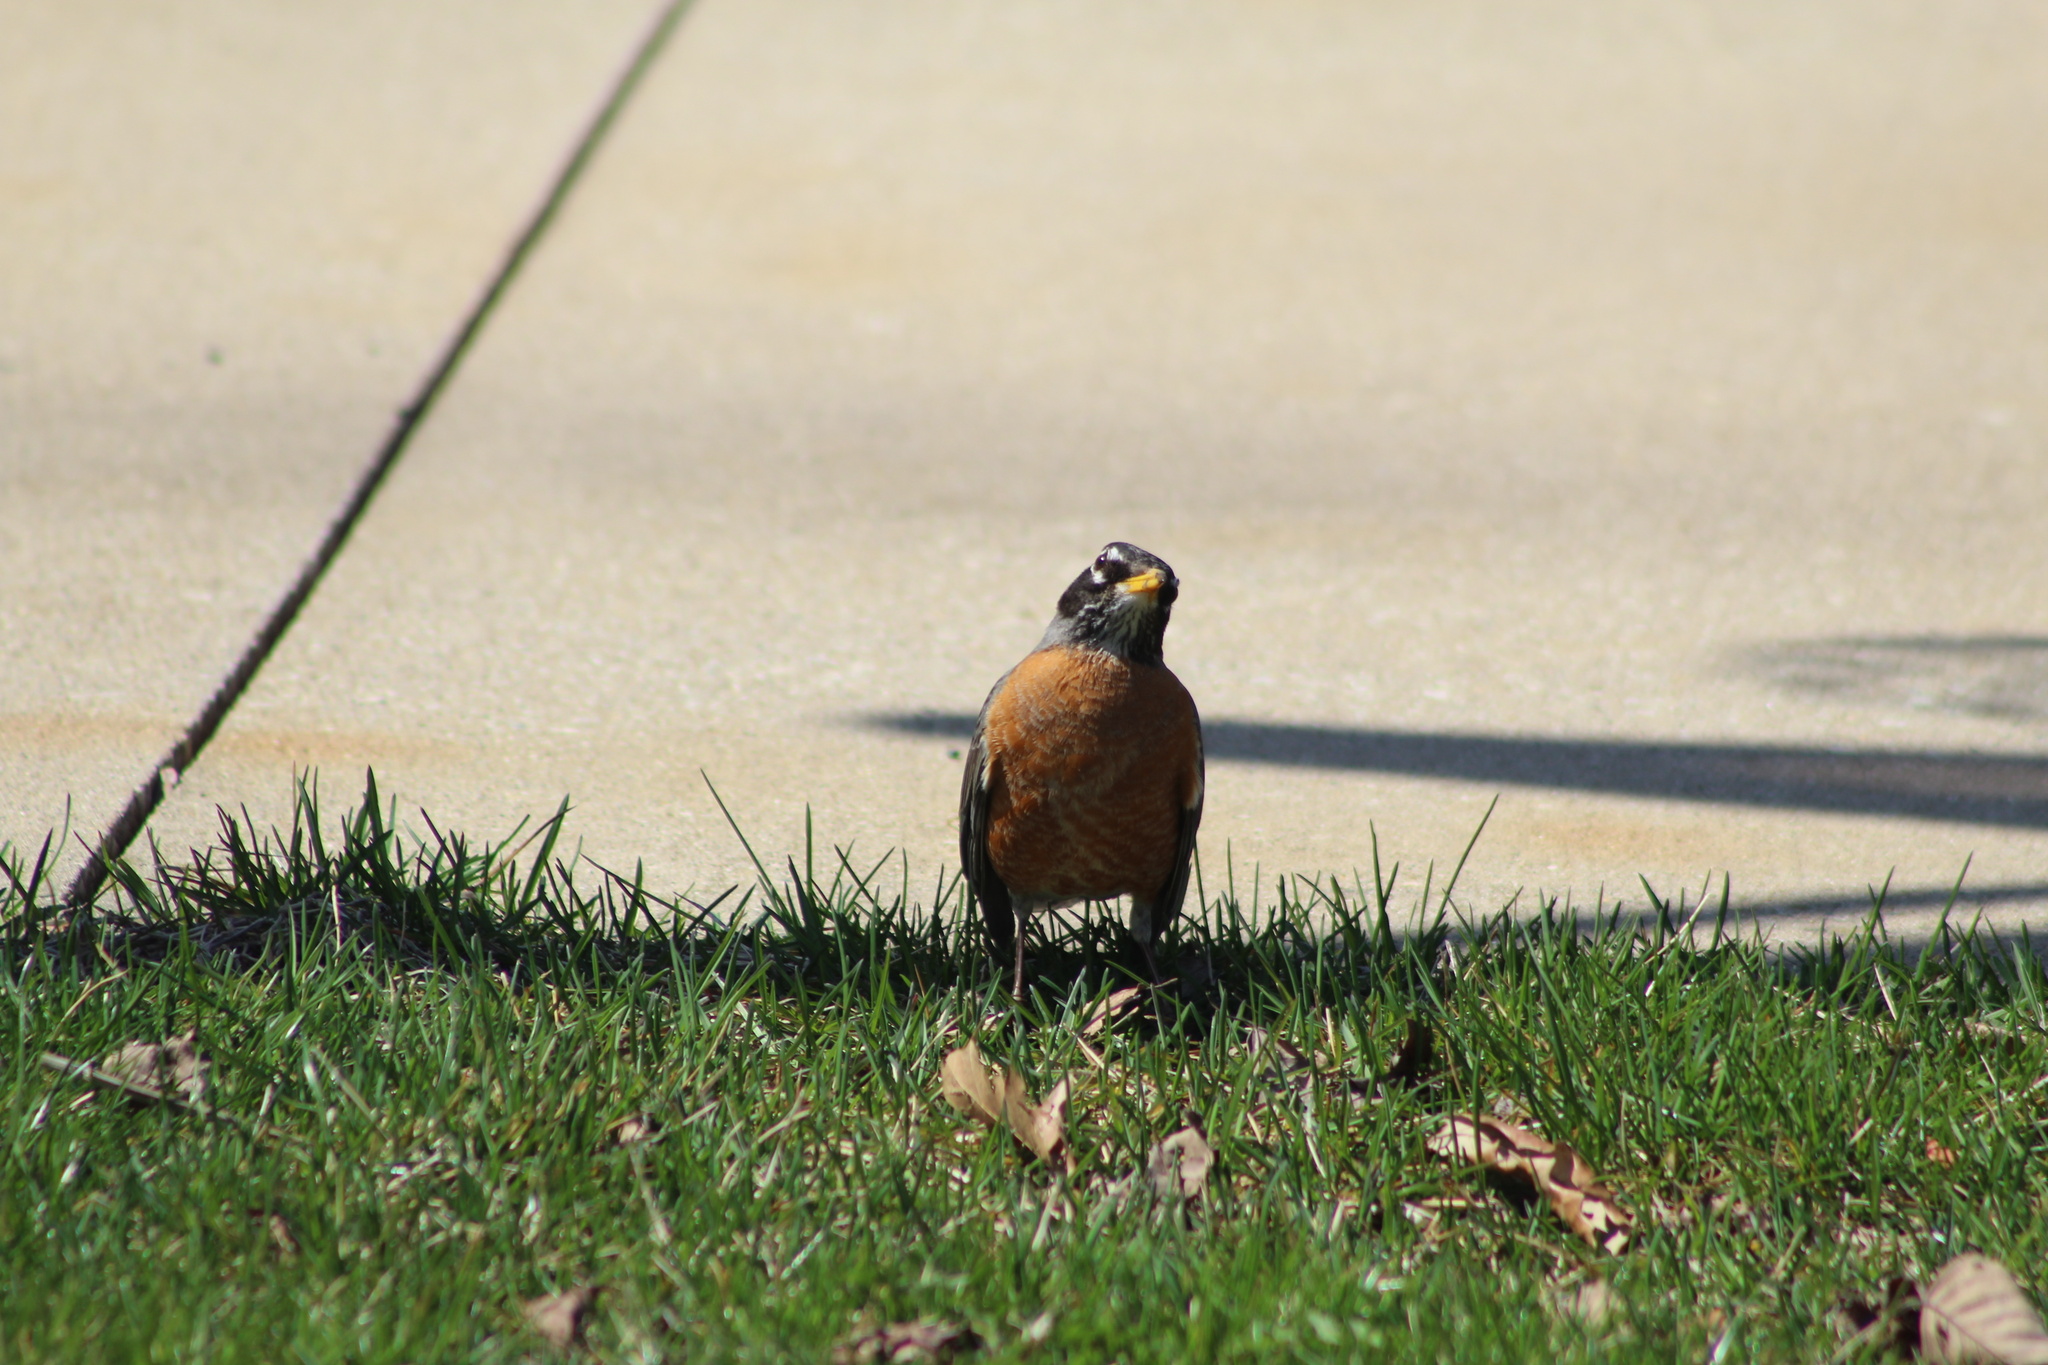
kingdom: Animalia
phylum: Chordata
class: Aves
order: Passeriformes
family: Turdidae
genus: Turdus
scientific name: Turdus migratorius
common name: American robin
